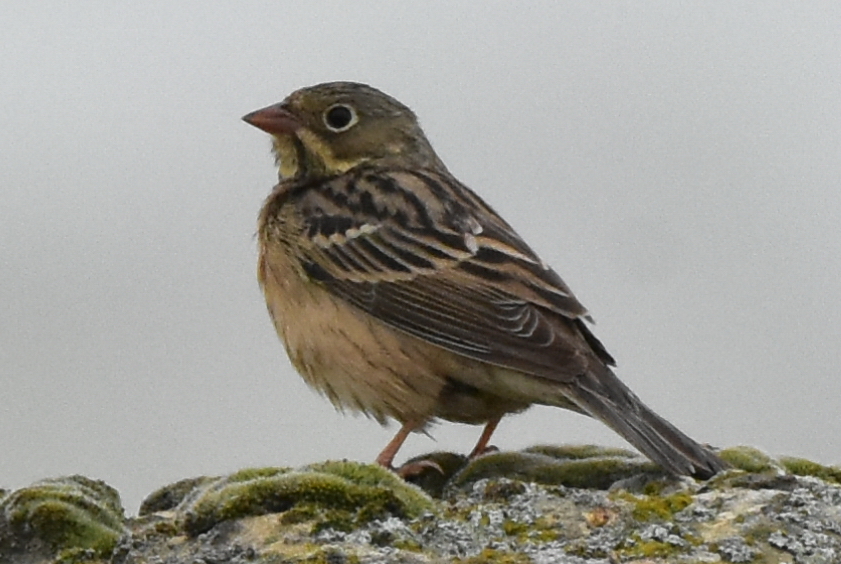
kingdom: Animalia
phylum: Chordata
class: Aves
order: Passeriformes
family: Emberizidae
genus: Emberiza
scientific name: Emberiza hortulana
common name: Ortolan bunting
